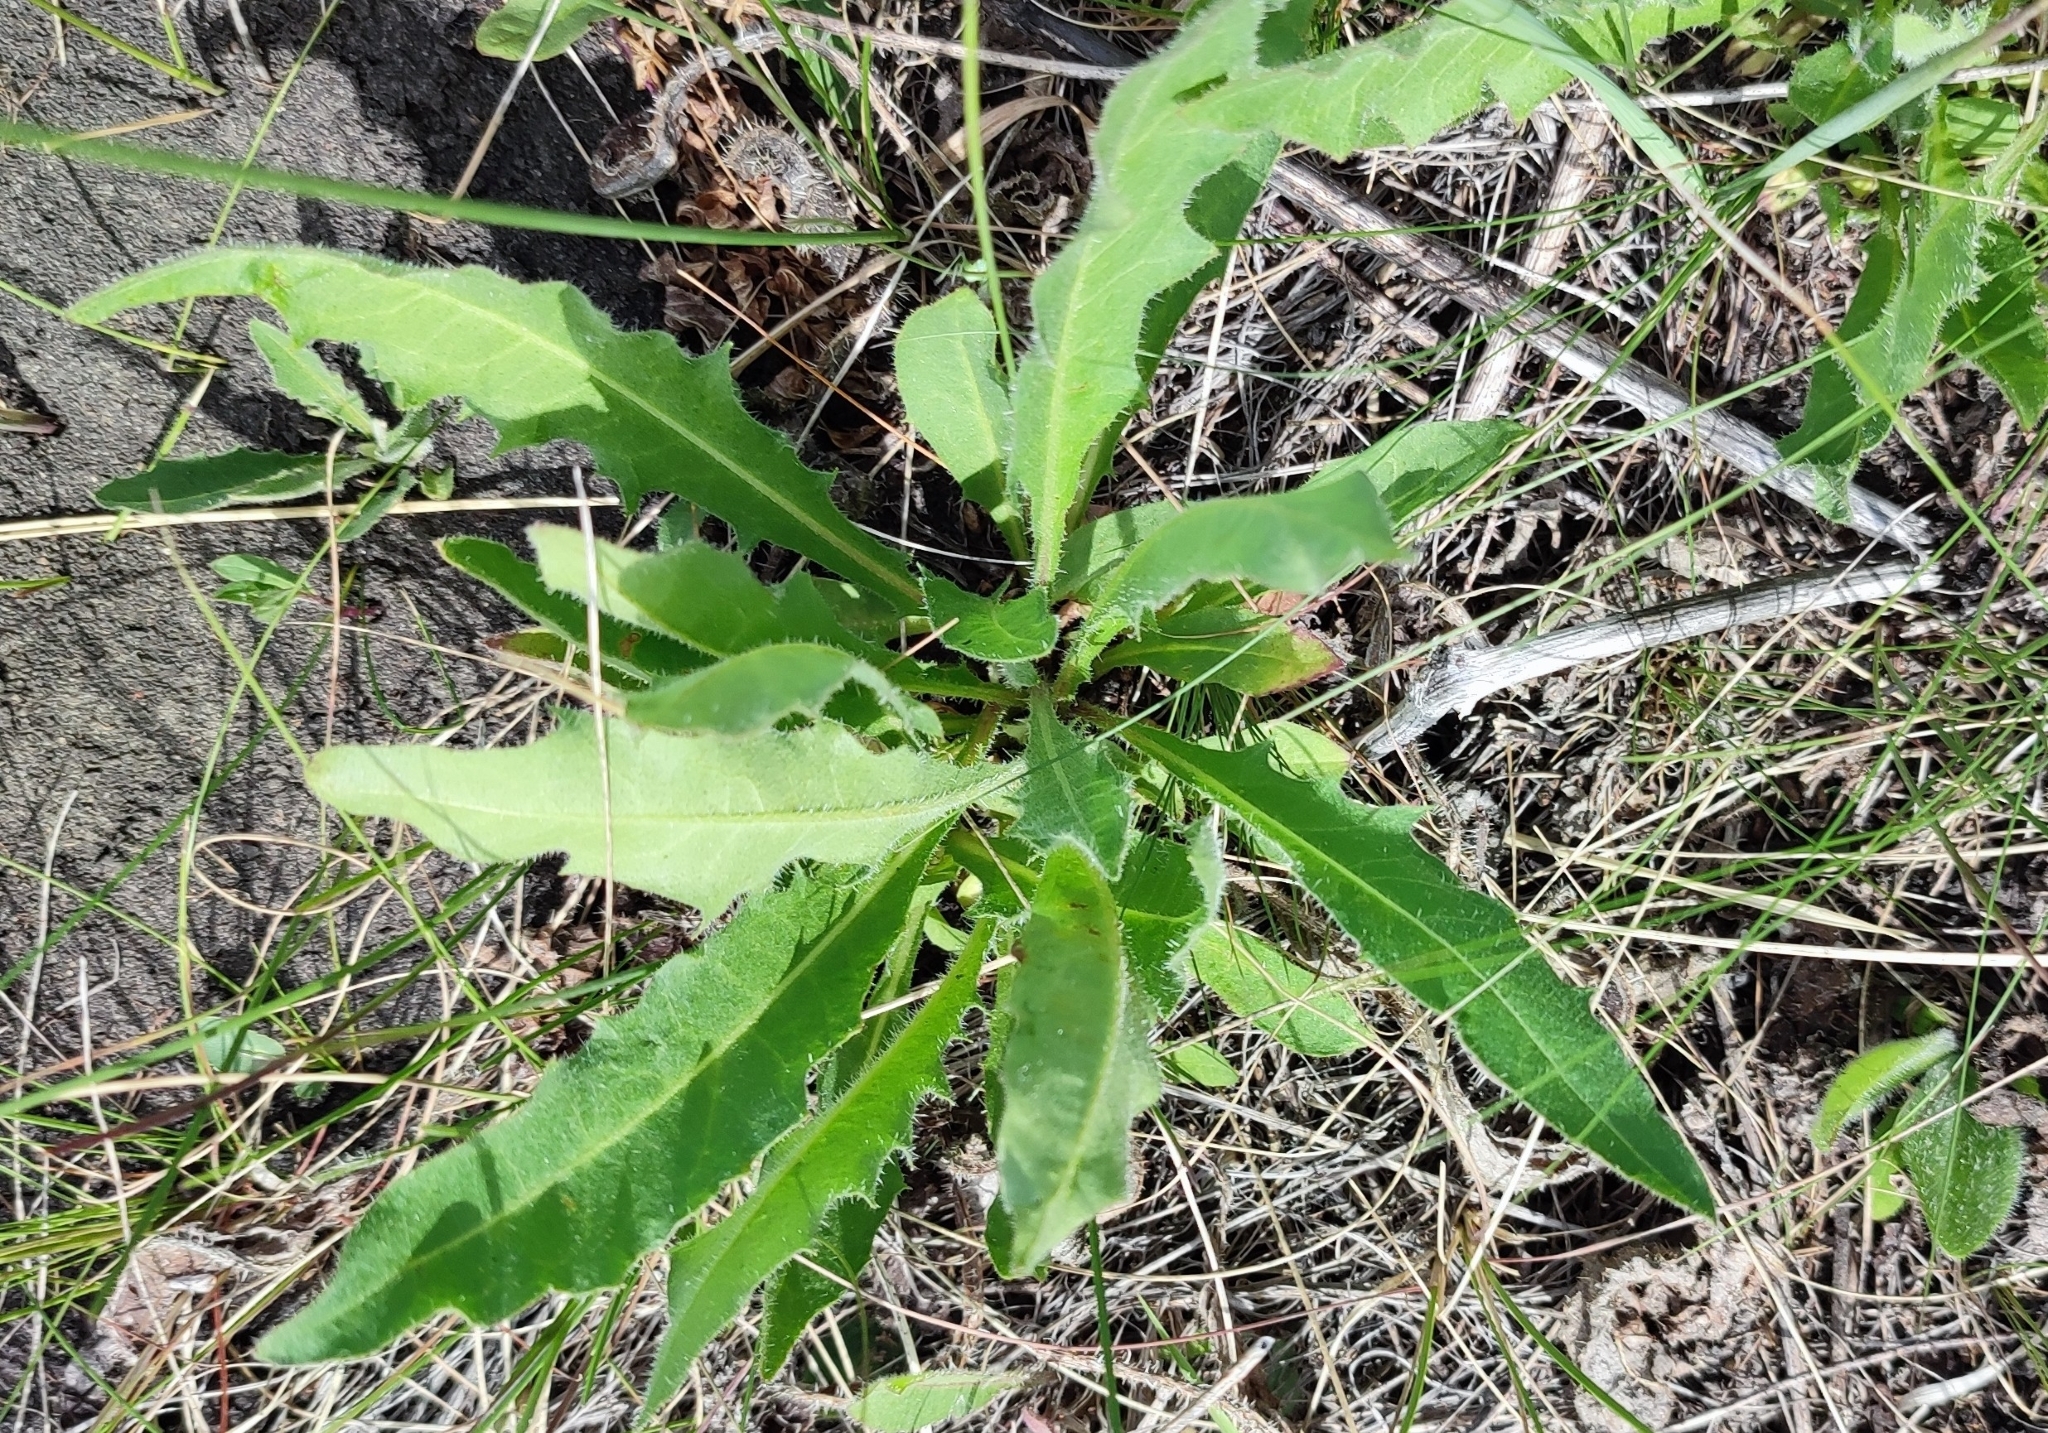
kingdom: Plantae
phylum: Tracheophyta
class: Magnoliopsida
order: Asterales
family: Asteraceae
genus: Picris
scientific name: Picris hieracioides
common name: Hawkweed oxtongue
